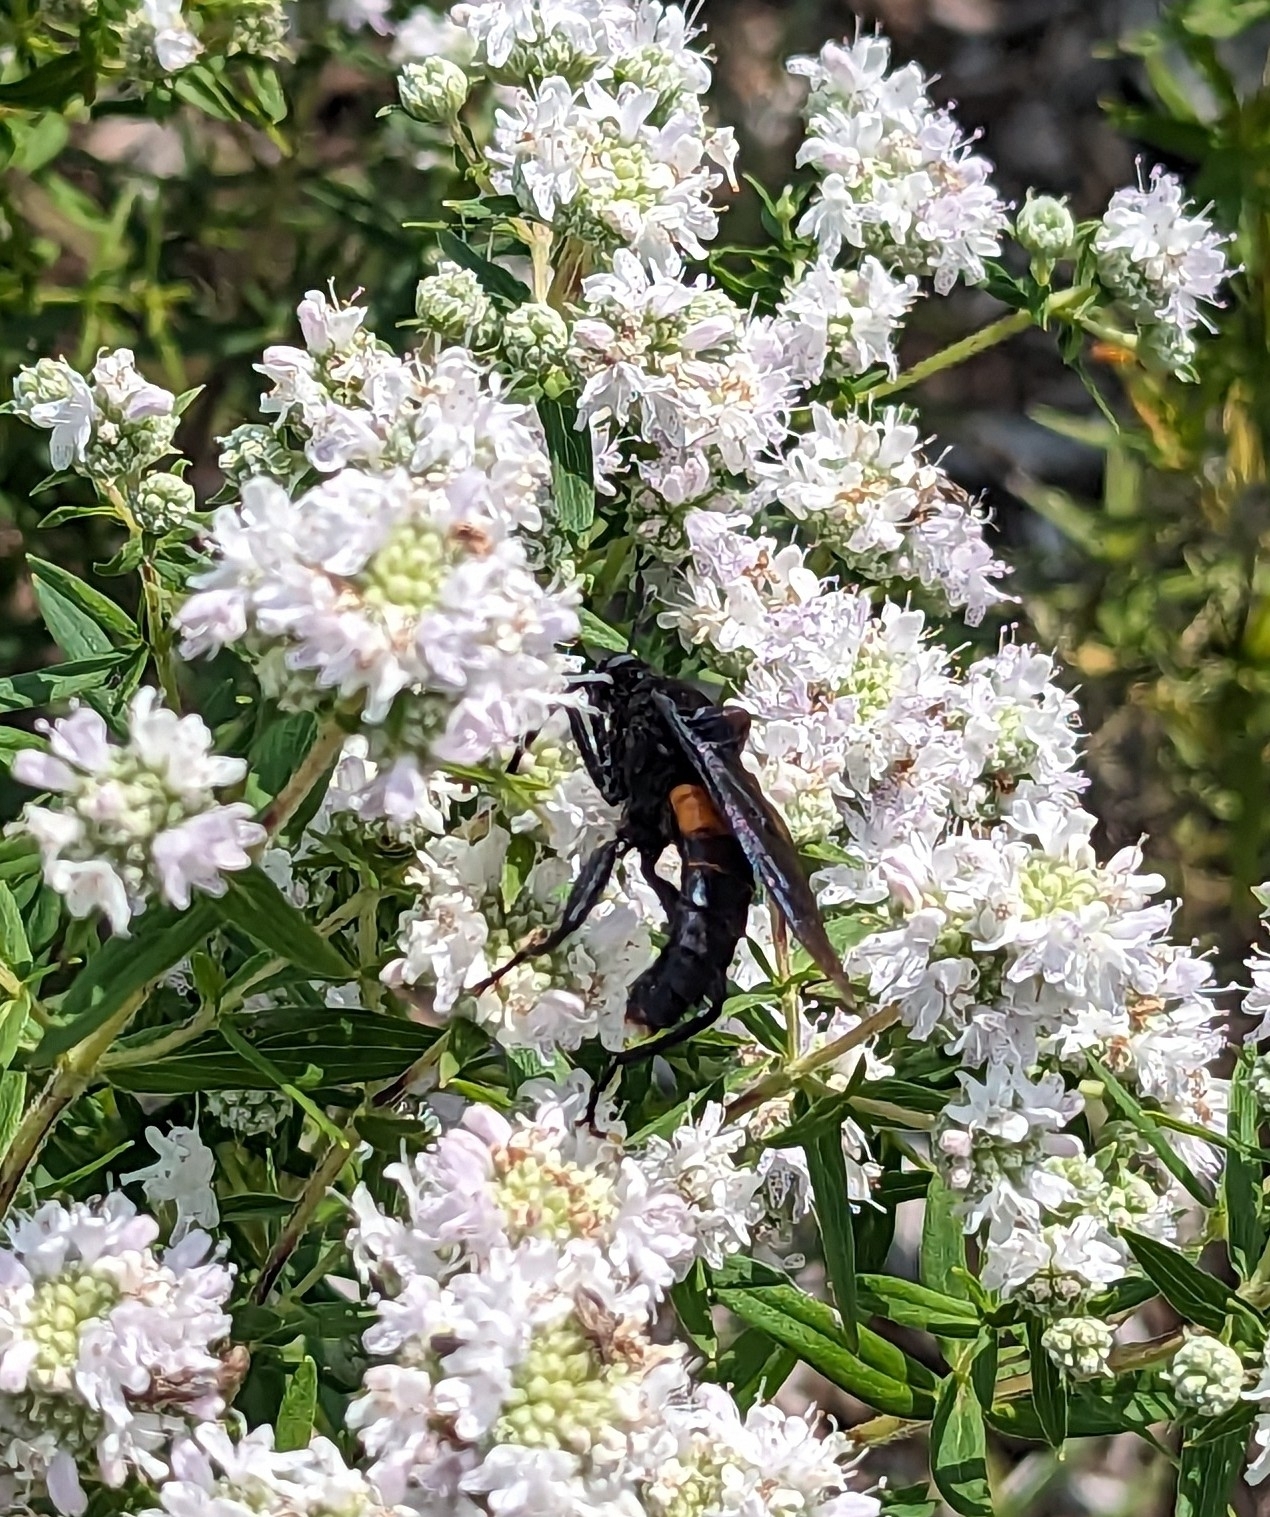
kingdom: Animalia
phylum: Arthropoda
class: Insecta
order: Diptera
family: Mydidae
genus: Mydas
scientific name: Mydas clavatus
